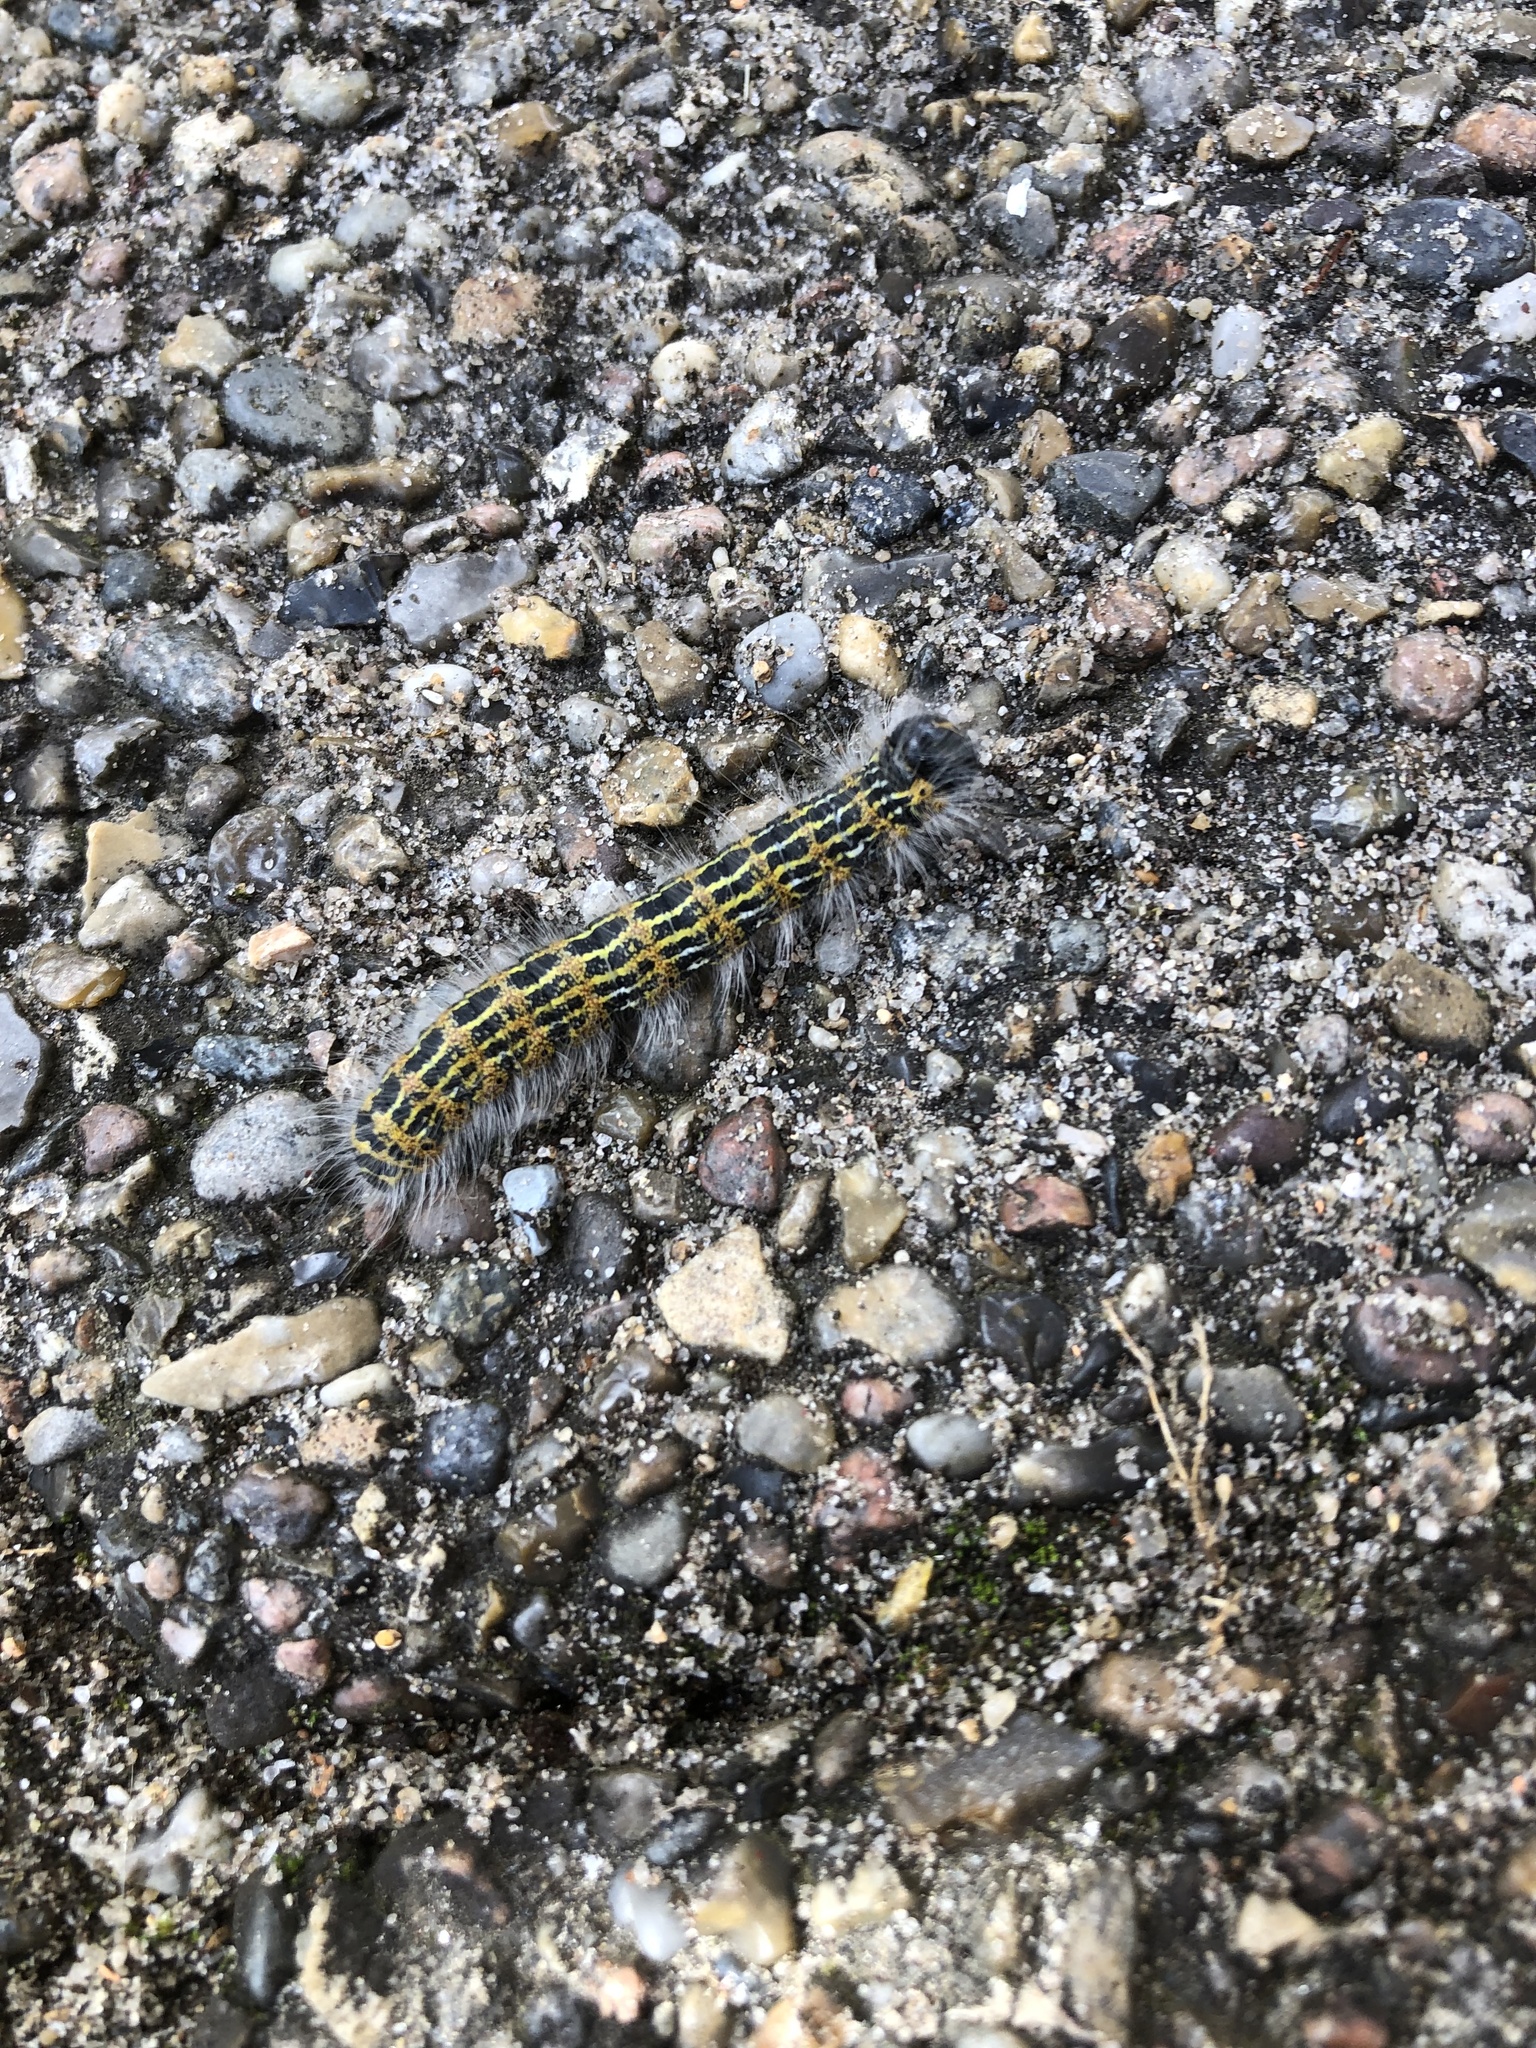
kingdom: Animalia
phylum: Arthropoda
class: Insecta
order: Lepidoptera
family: Notodontidae
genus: Phalera
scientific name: Phalera bucephala
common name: Buff-tip
